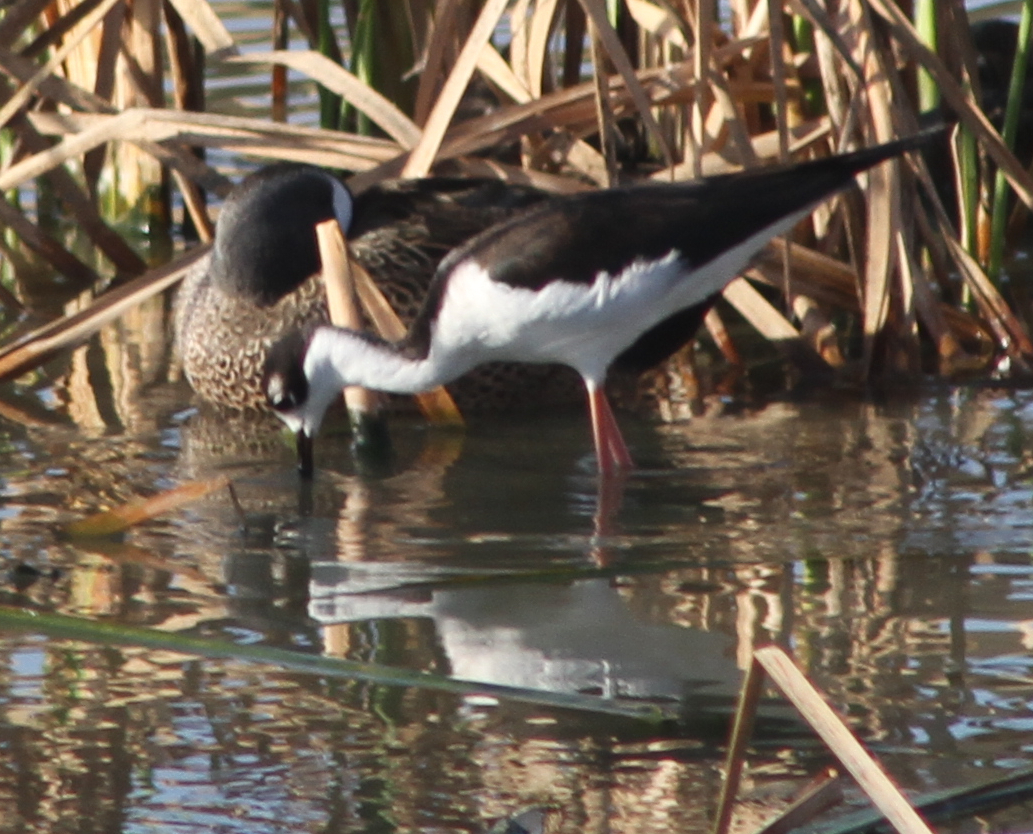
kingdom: Animalia
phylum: Chordata
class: Aves
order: Charadriiformes
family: Recurvirostridae
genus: Himantopus
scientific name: Himantopus mexicanus
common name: Black-necked stilt
